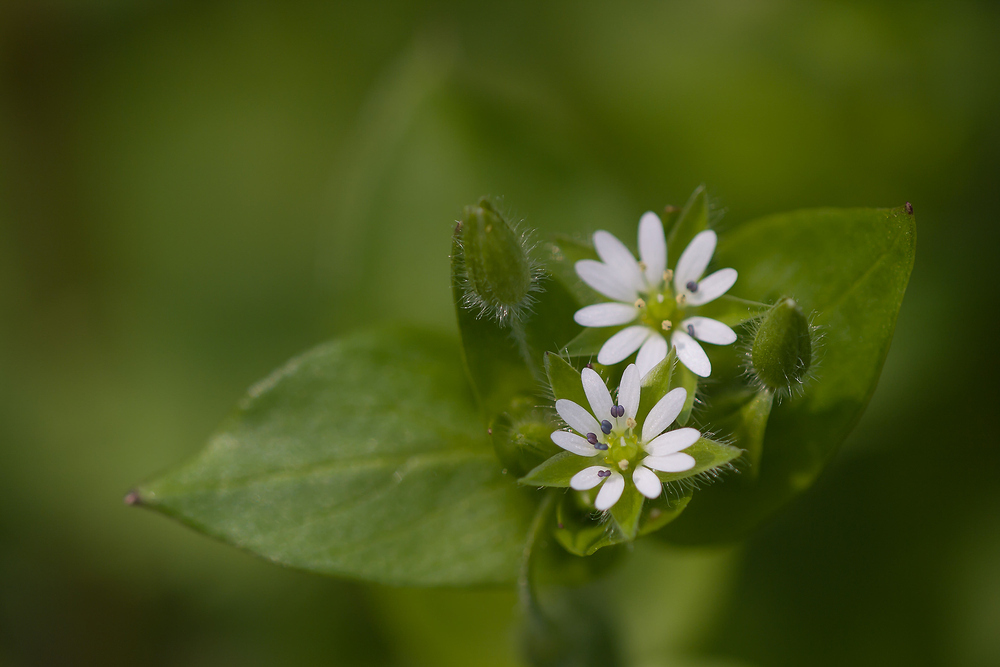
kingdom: Plantae
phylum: Tracheophyta
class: Magnoliopsida
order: Caryophyllales
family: Caryophyllaceae
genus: Stellaria
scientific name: Stellaria media
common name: Common chickweed
